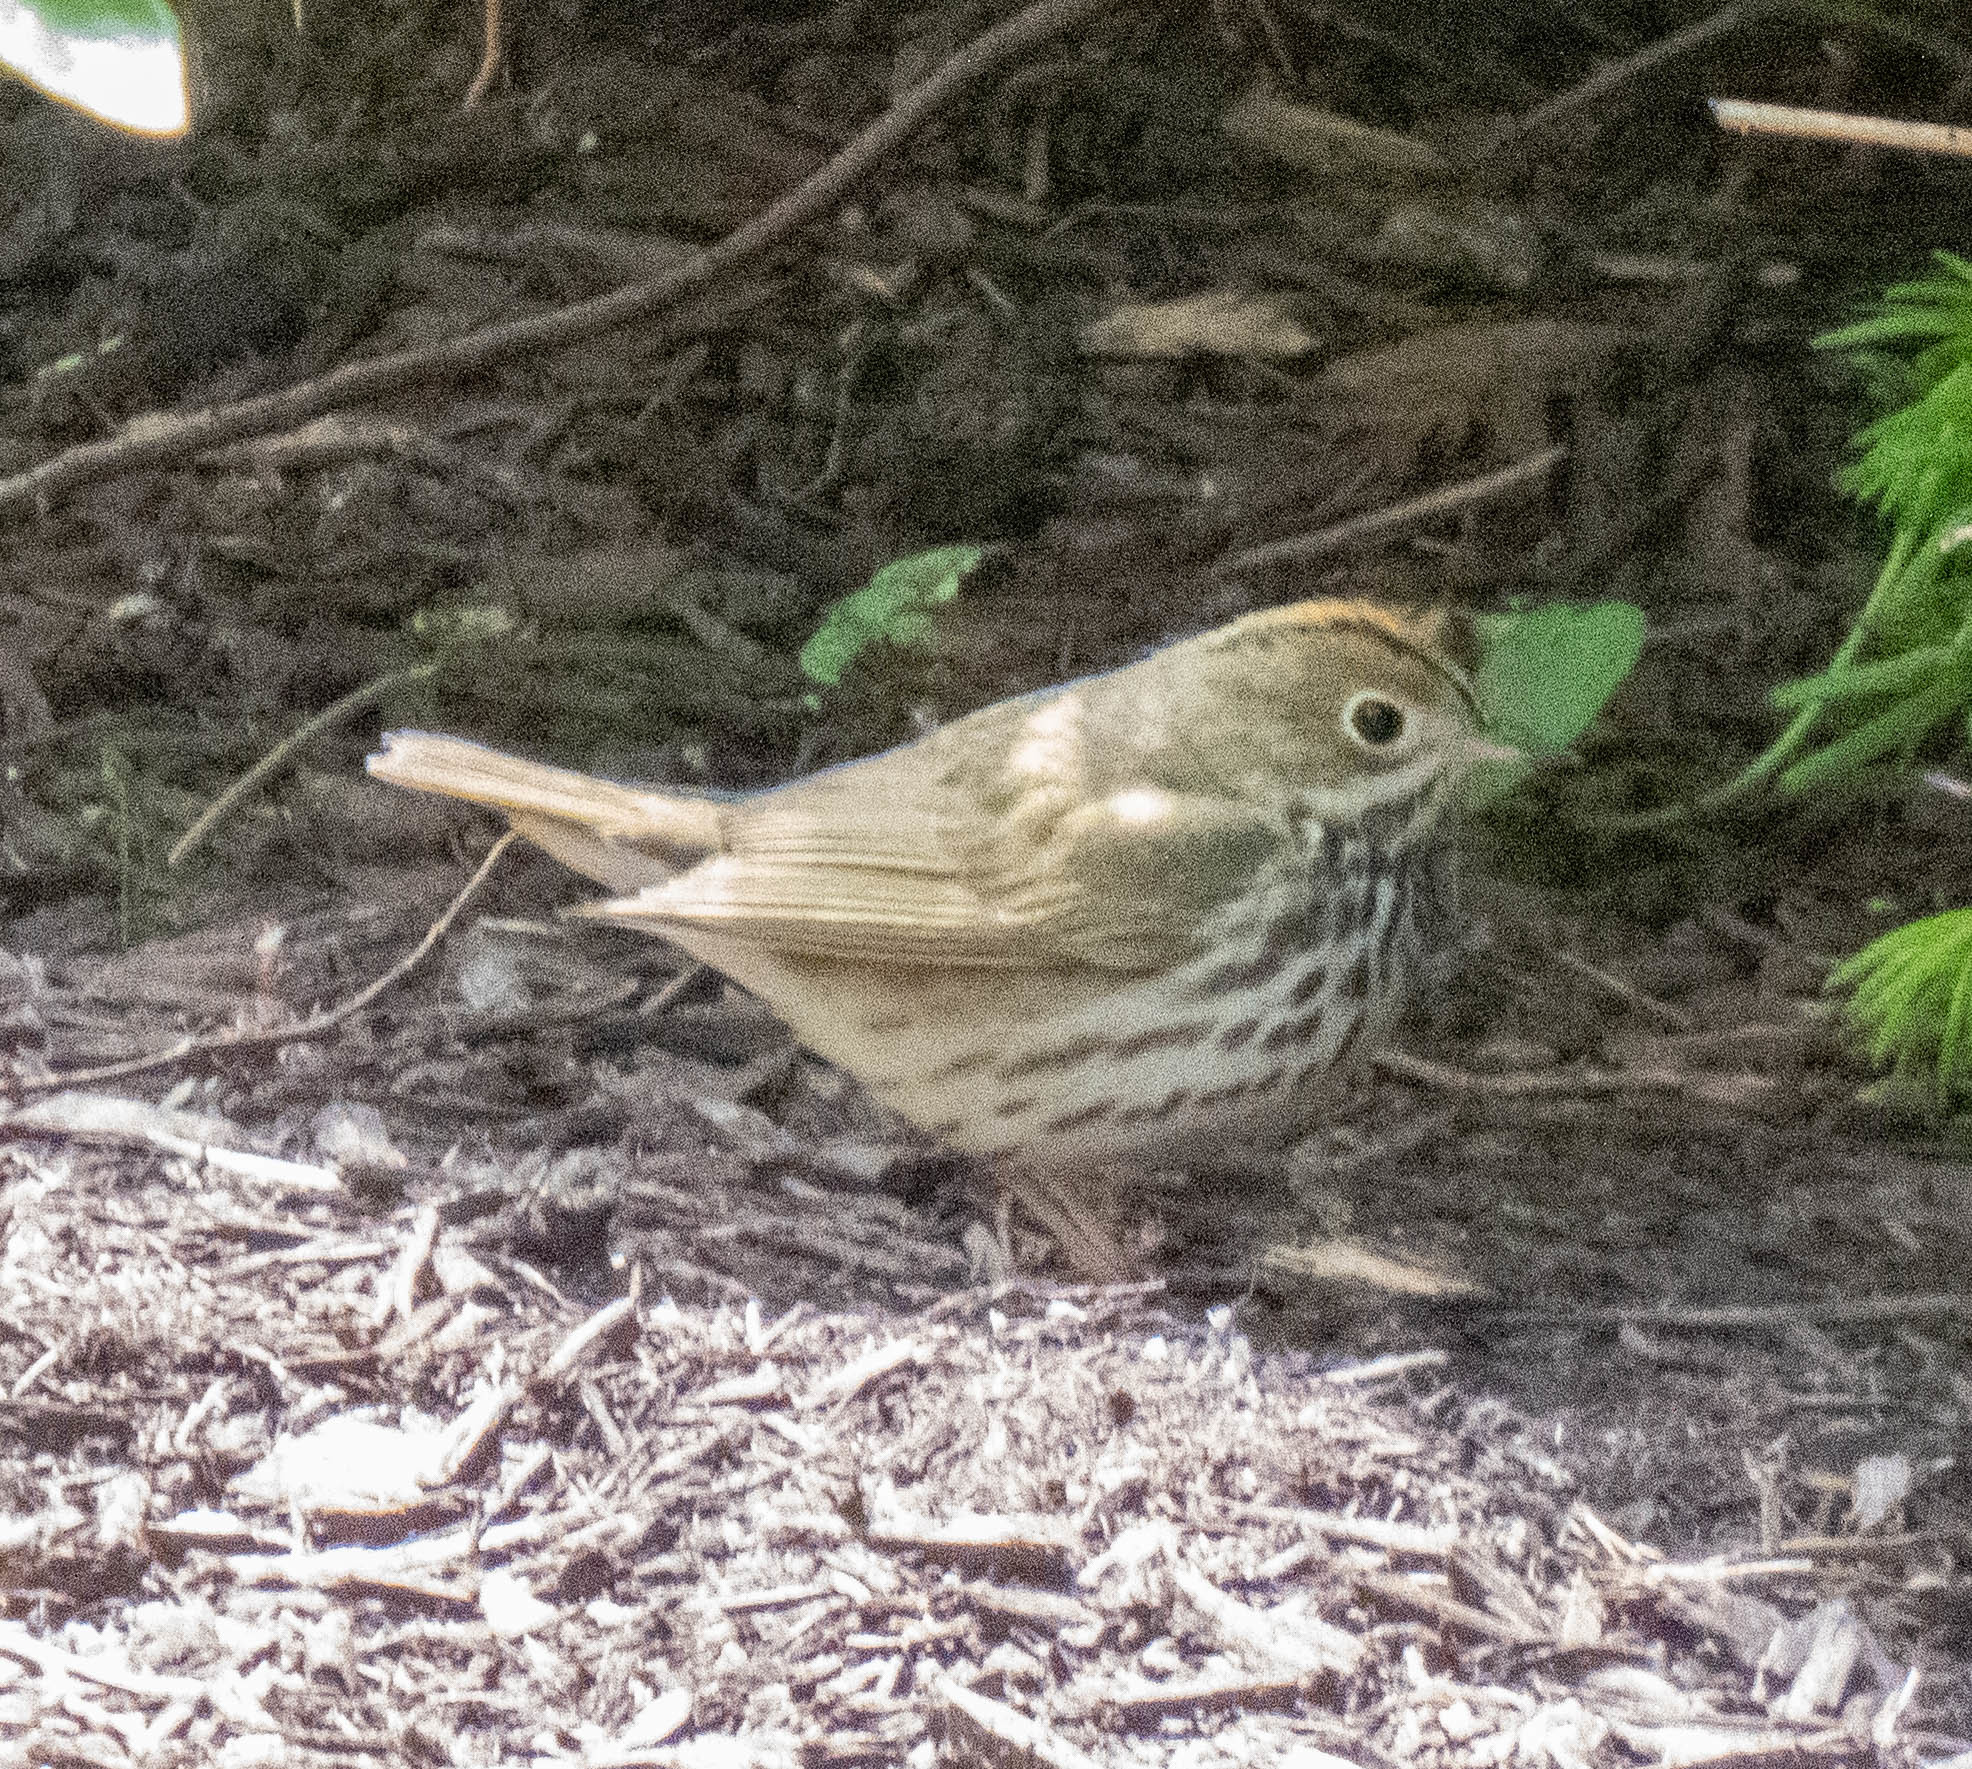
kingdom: Animalia
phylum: Chordata
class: Aves
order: Passeriformes
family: Parulidae
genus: Seiurus
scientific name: Seiurus aurocapilla
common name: Ovenbird
